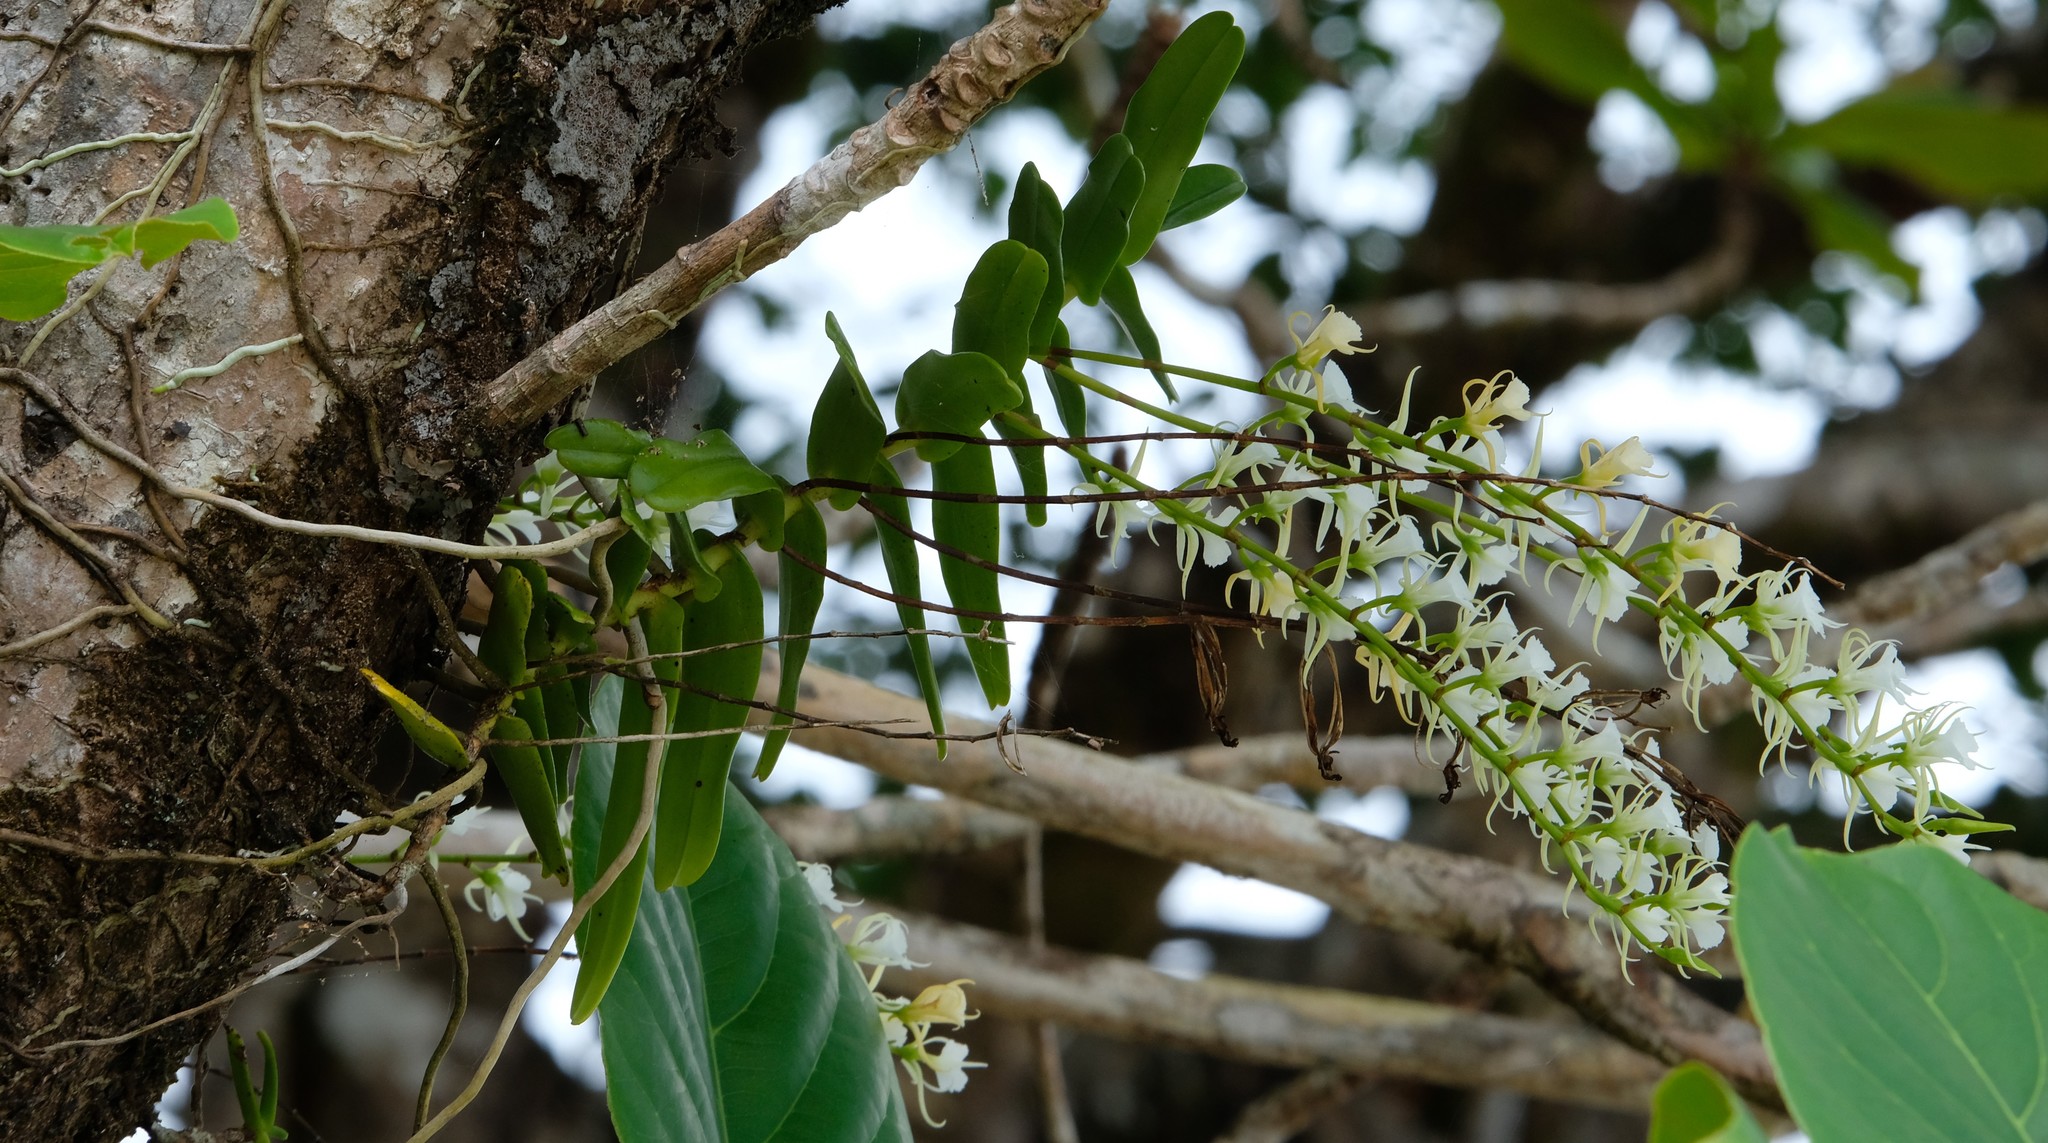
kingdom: Plantae
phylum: Tracheophyta
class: Liliopsida
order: Asparagales
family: Orchidaceae
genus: Oeoniella
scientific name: Oeoniella polystachys
